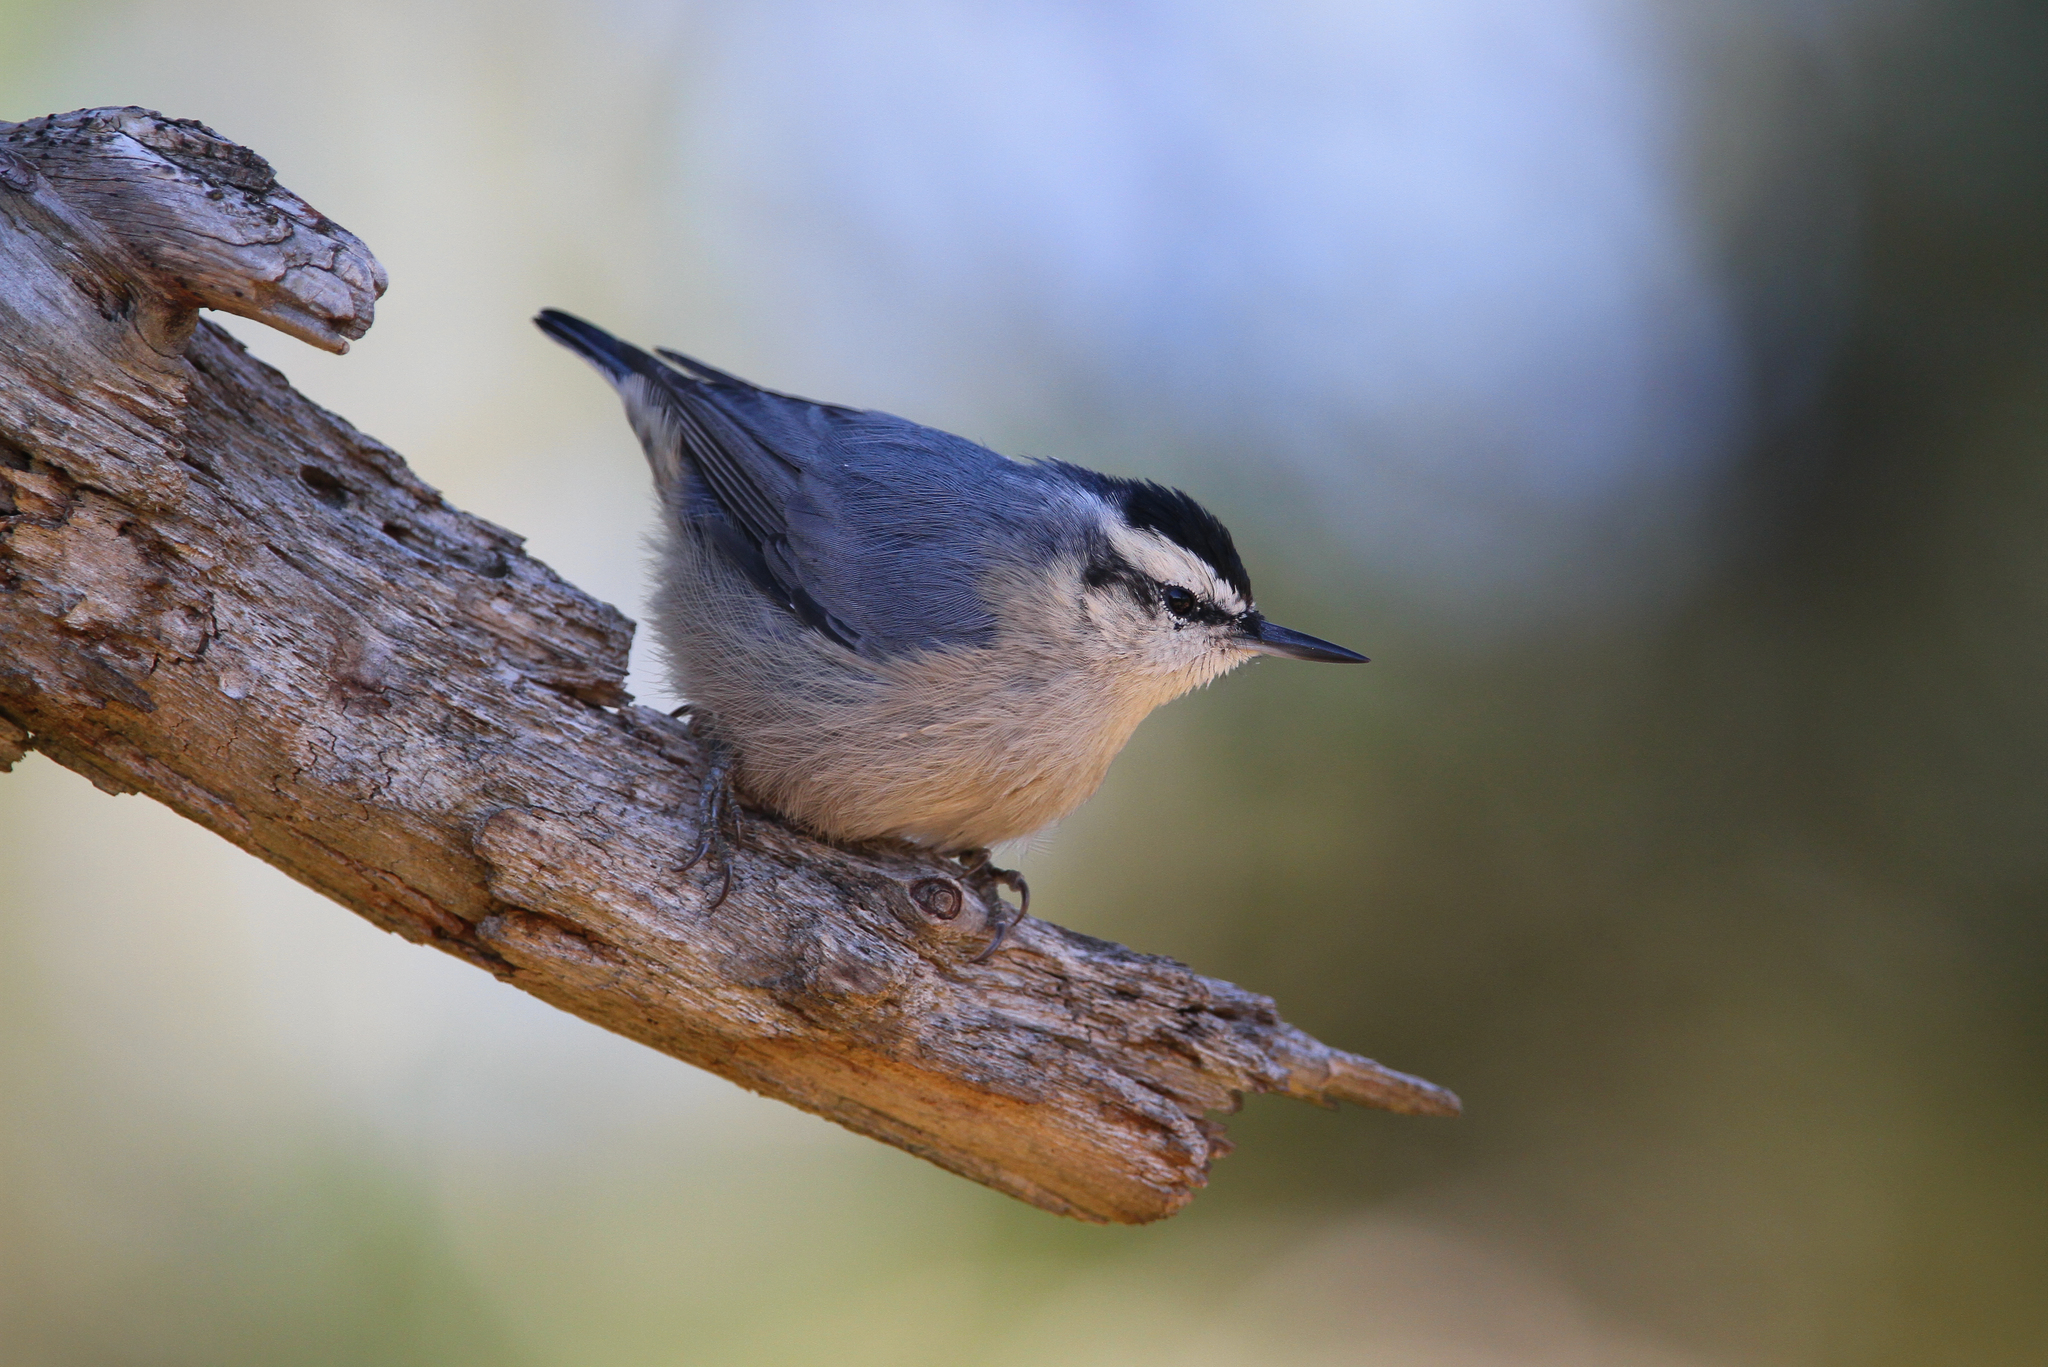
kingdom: Animalia
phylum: Chordata
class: Aves
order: Passeriformes
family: Sittidae
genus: Sitta
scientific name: Sitta whiteheadi
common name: Corsican nuthatch
